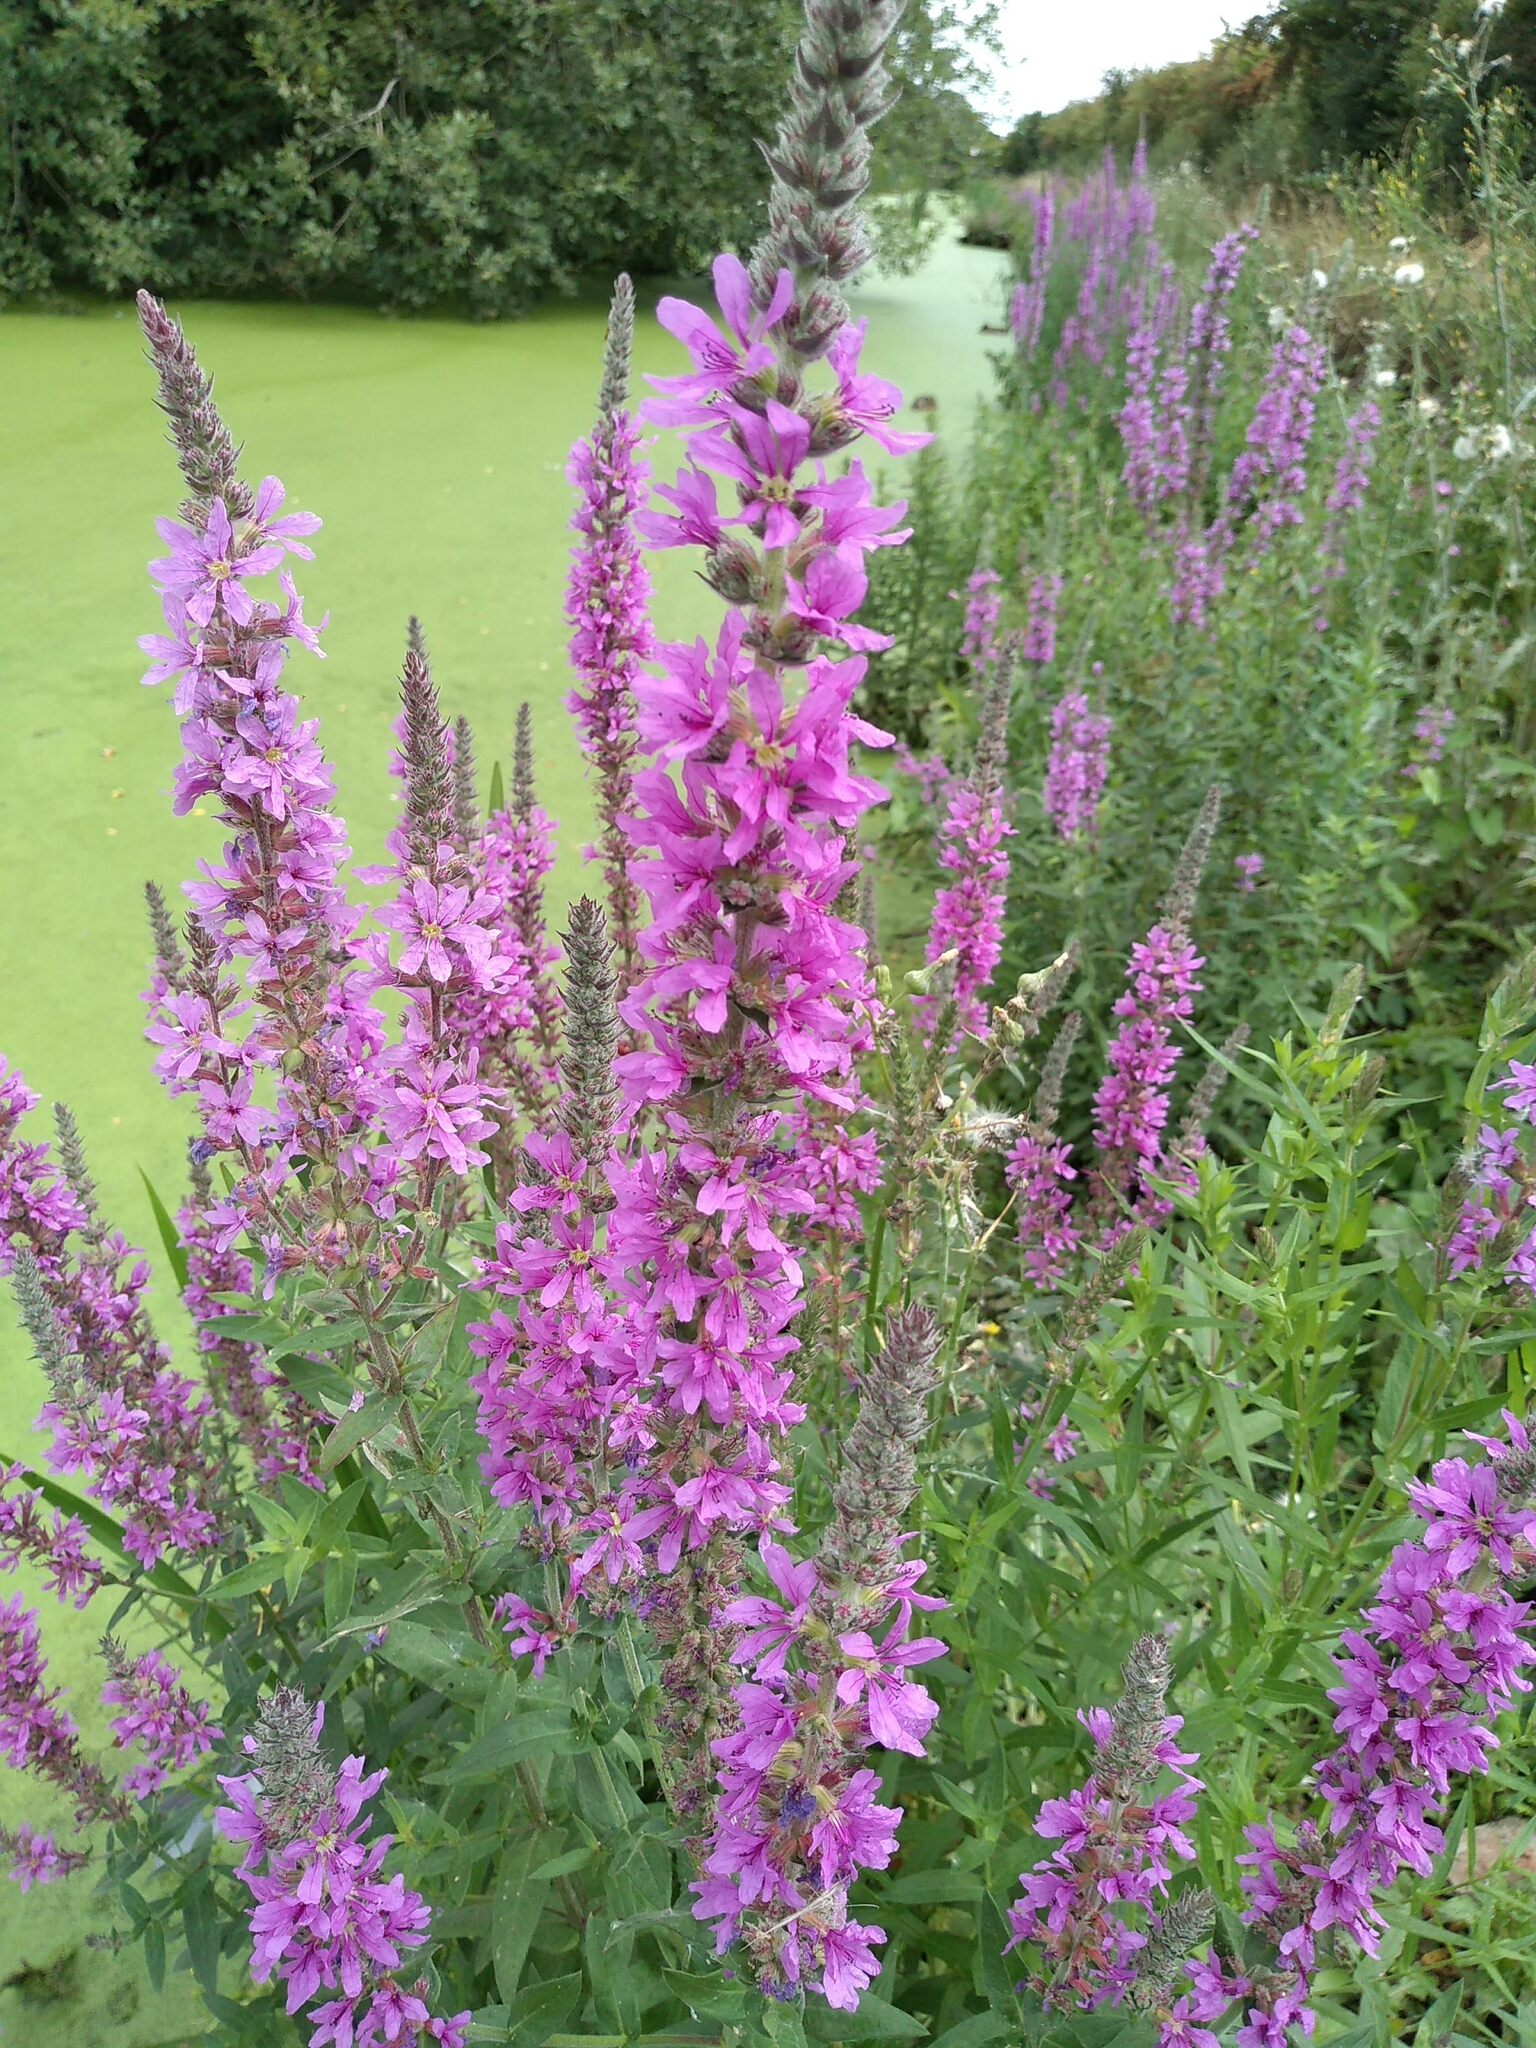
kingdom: Plantae
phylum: Tracheophyta
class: Magnoliopsida
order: Myrtales
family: Lythraceae
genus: Lythrum
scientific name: Lythrum salicaria
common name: Purple loosestrife
